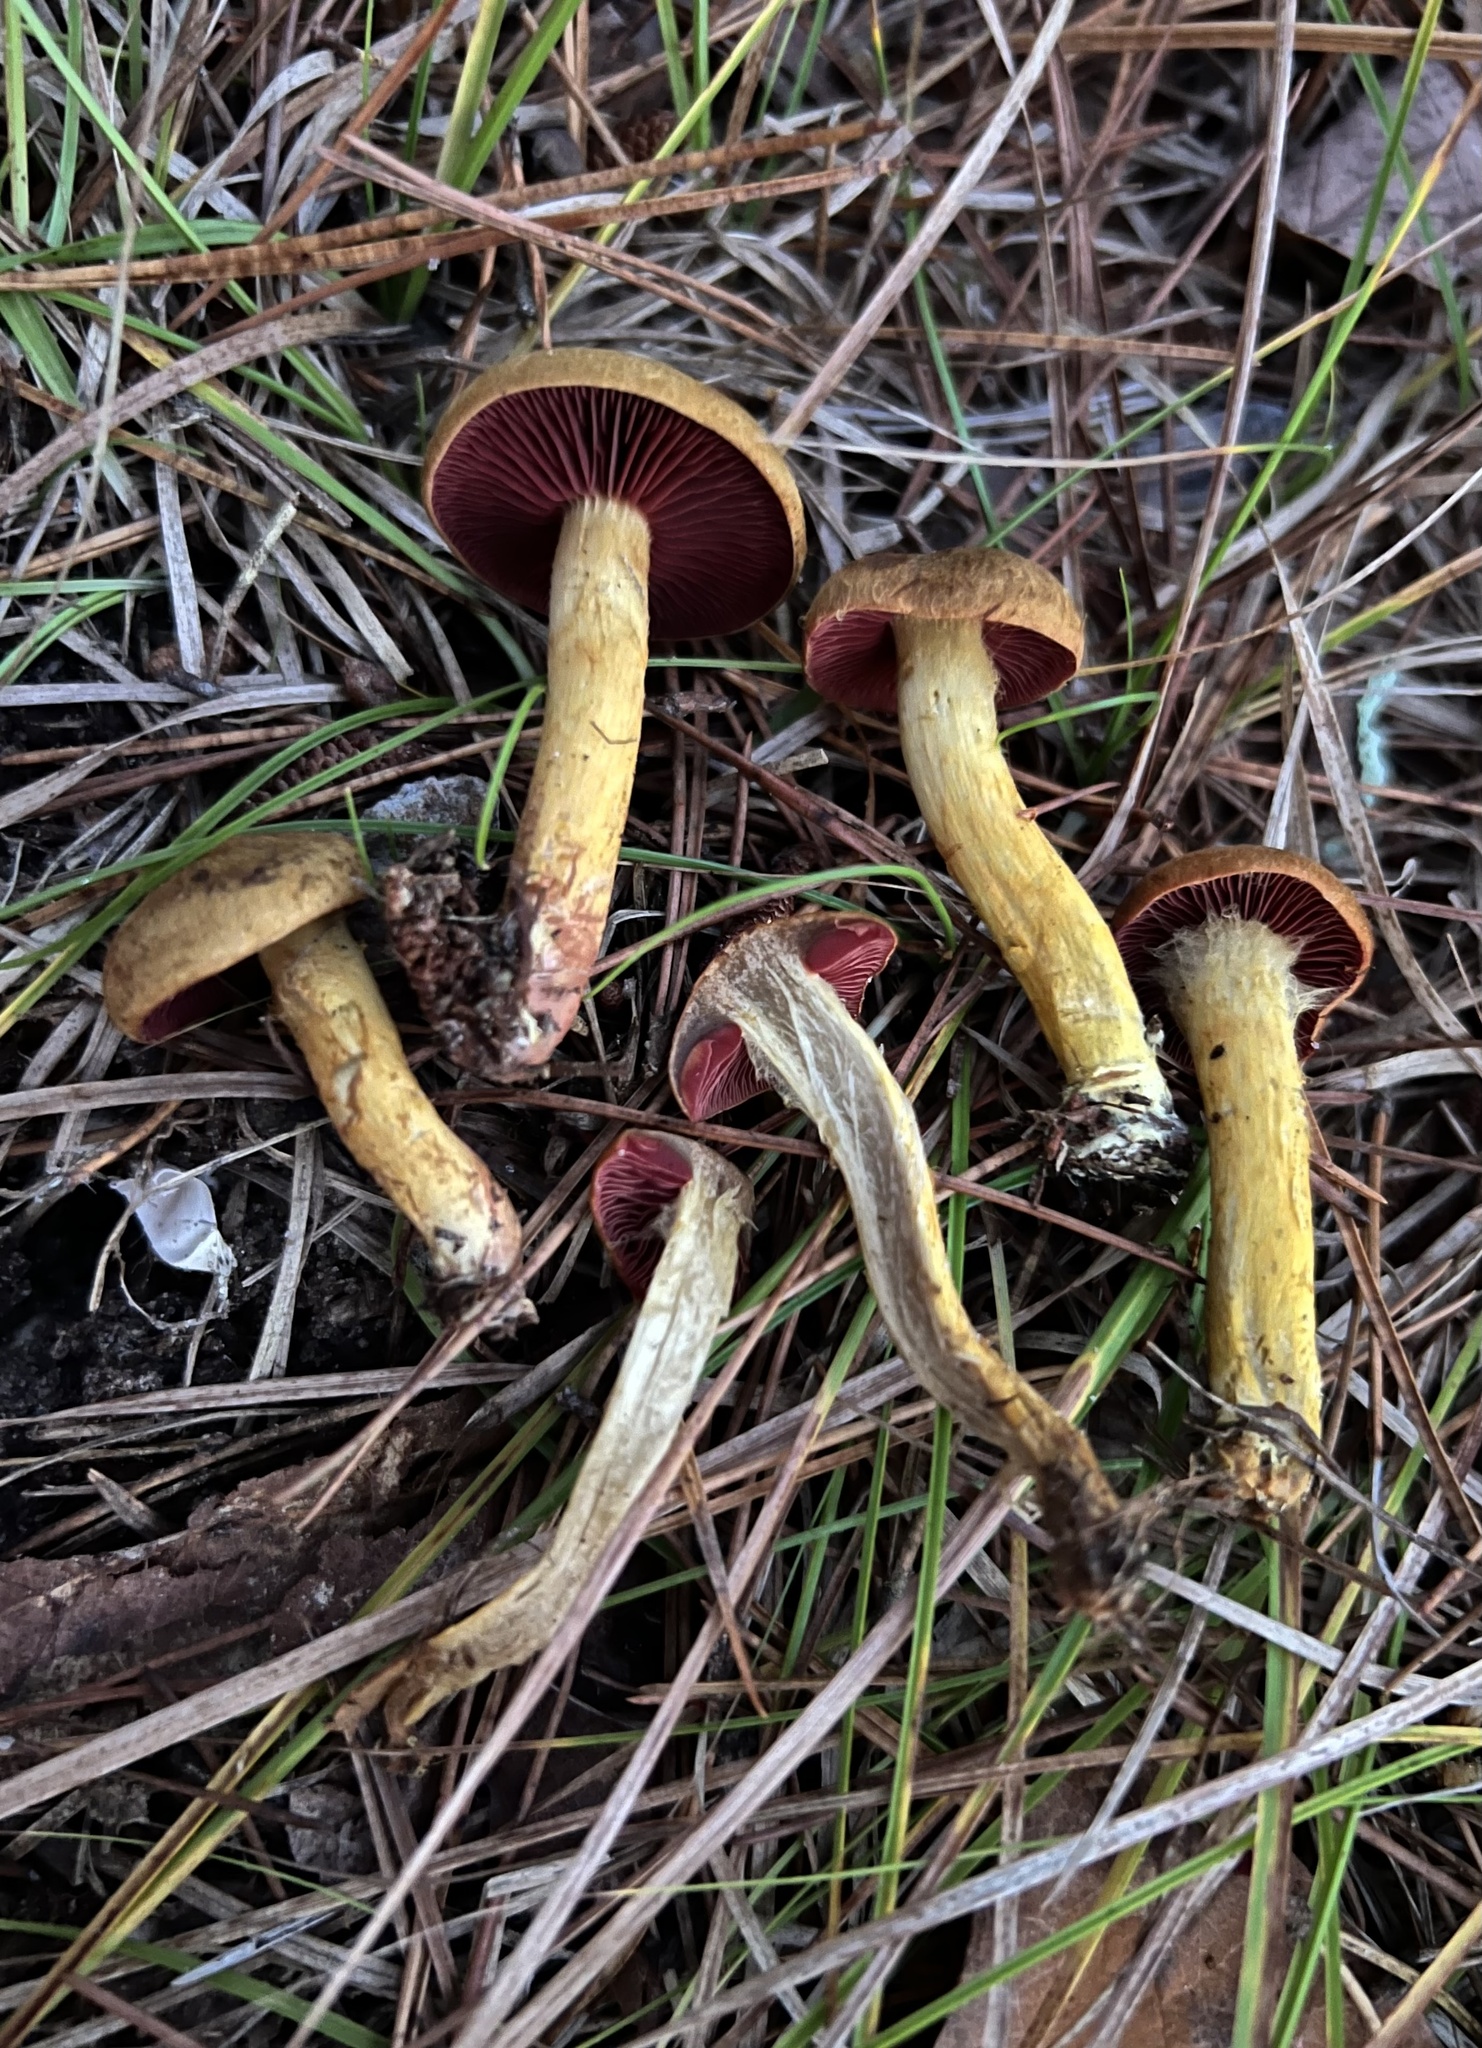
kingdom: Fungi
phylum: Basidiomycota
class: Agaricomycetes
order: Agaricales
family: Cortinariaceae
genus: Cortinarius
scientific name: Cortinarius tinctorum
